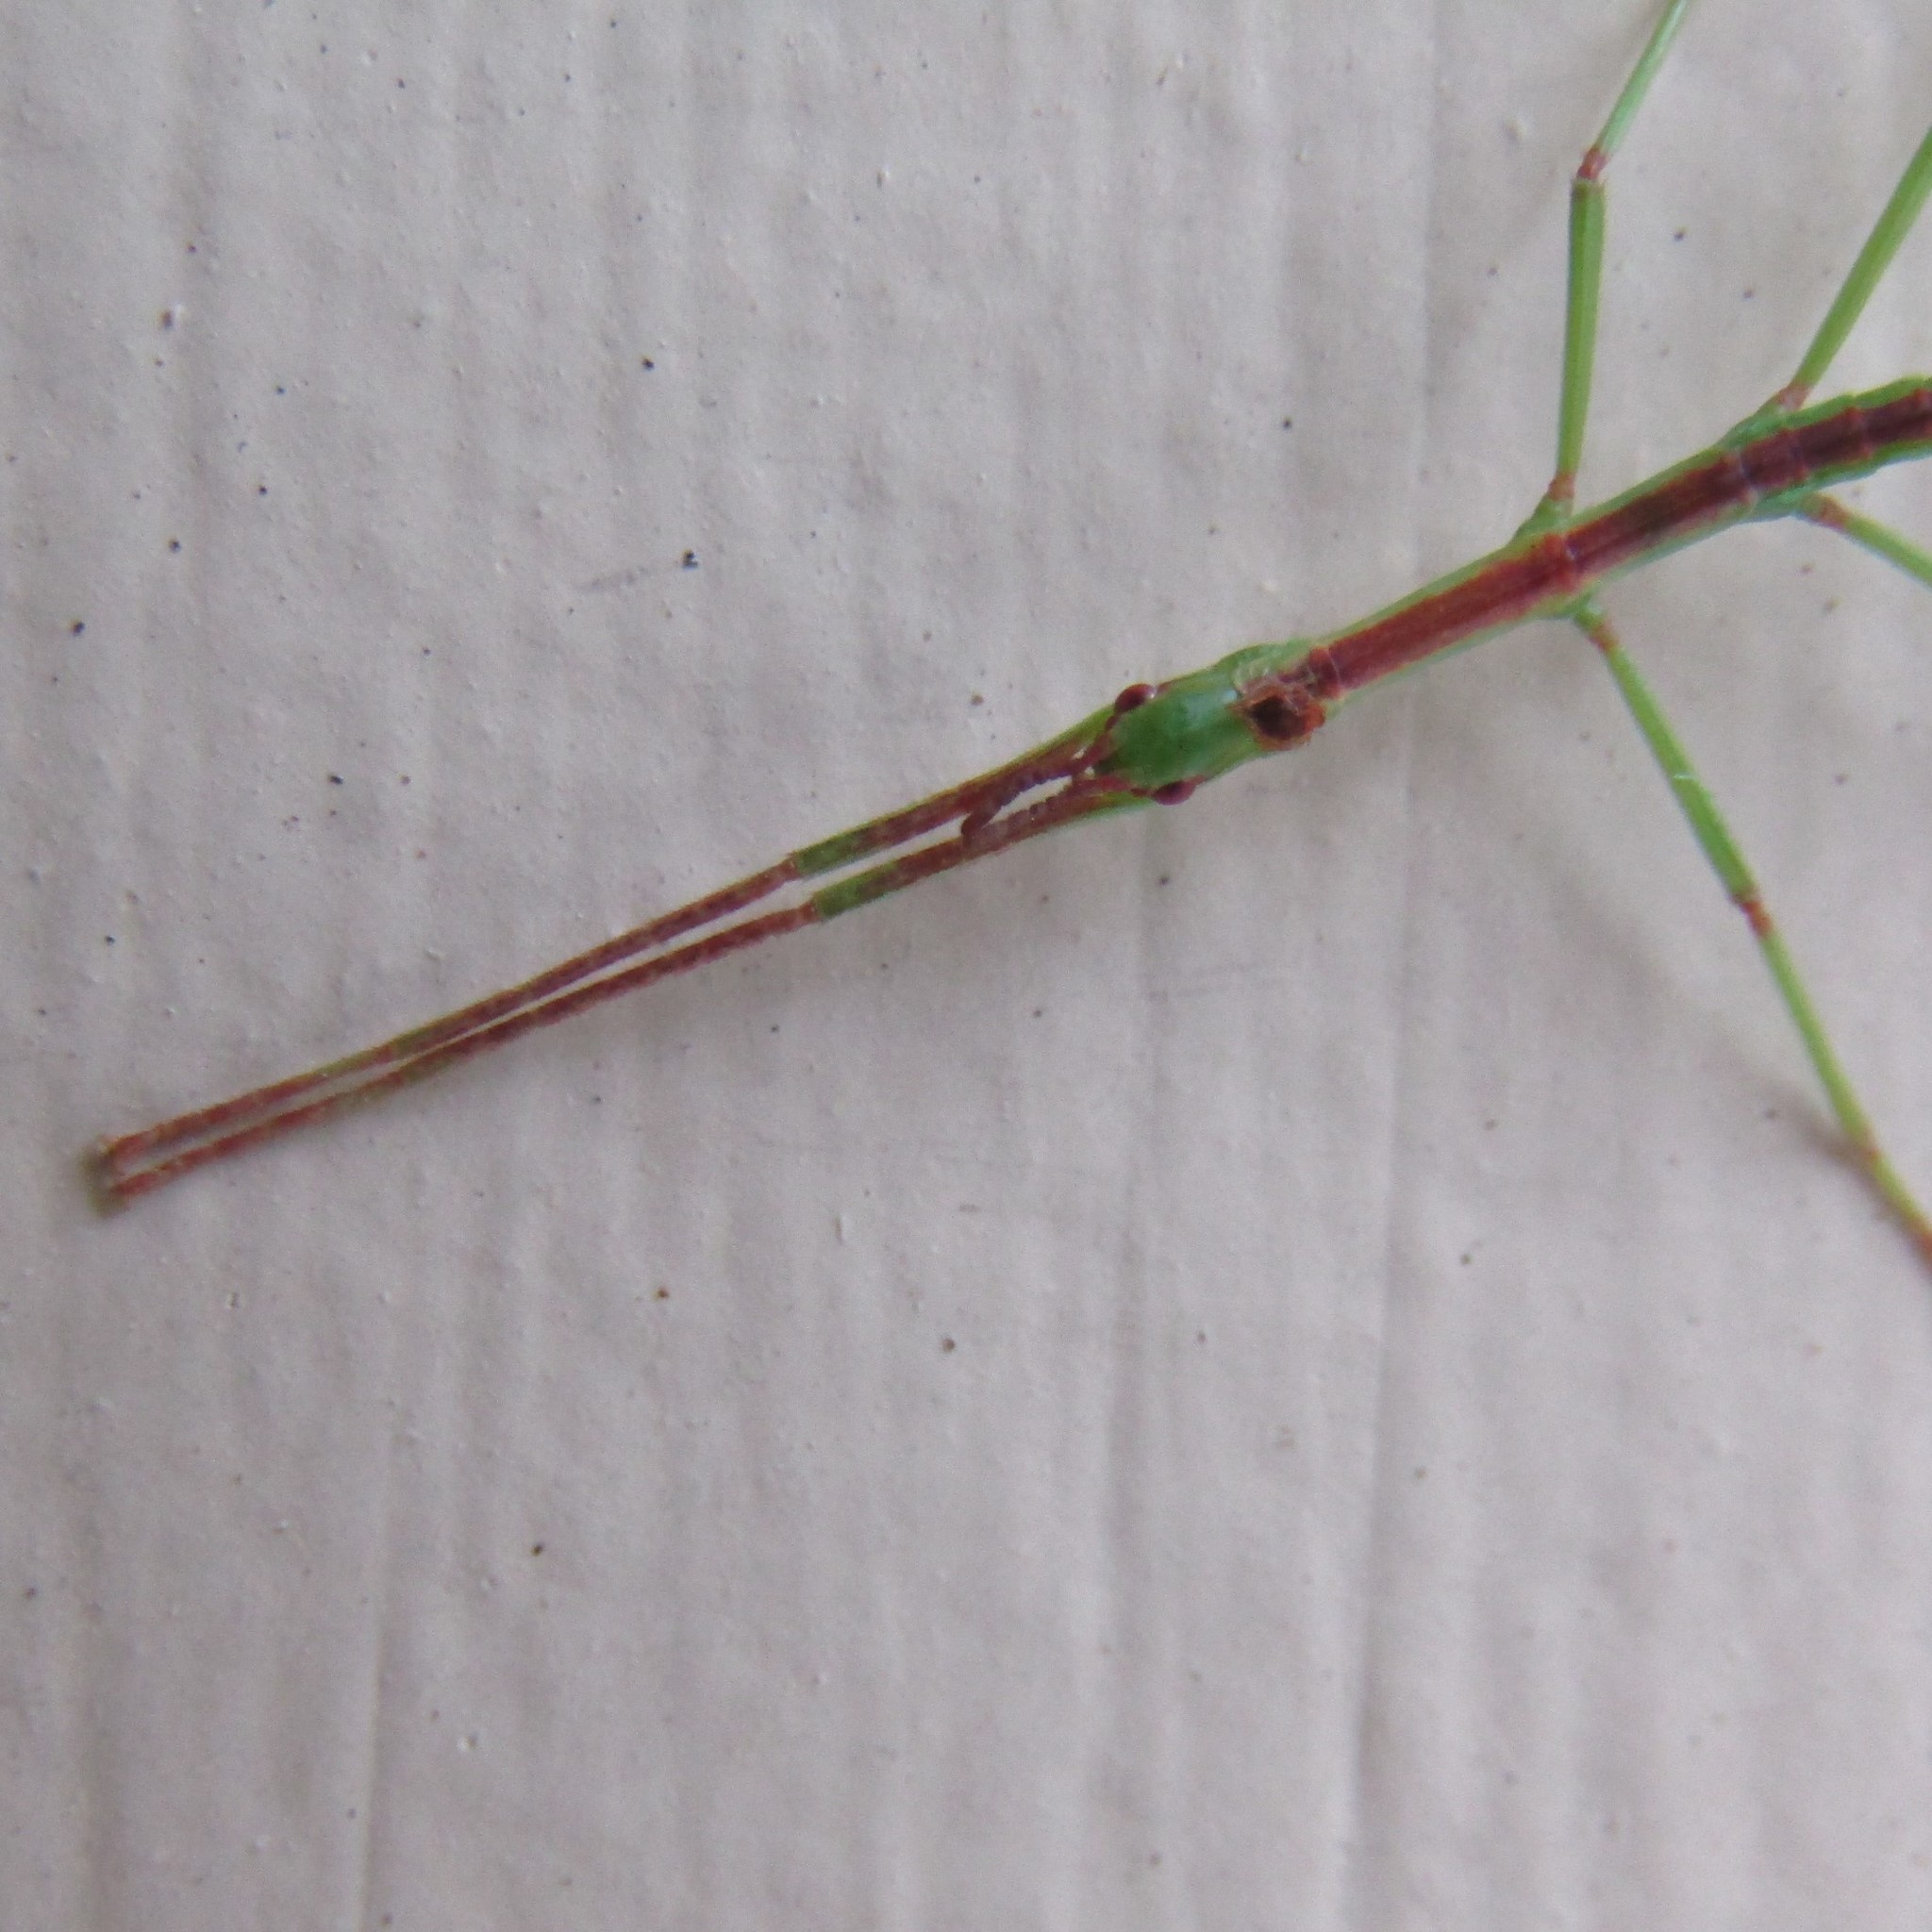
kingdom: Animalia
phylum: Arthropoda
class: Insecta
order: Phasmida
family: Phasmatidae
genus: Clitarchus
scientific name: Clitarchus hookeri
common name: Smooth stick insect
